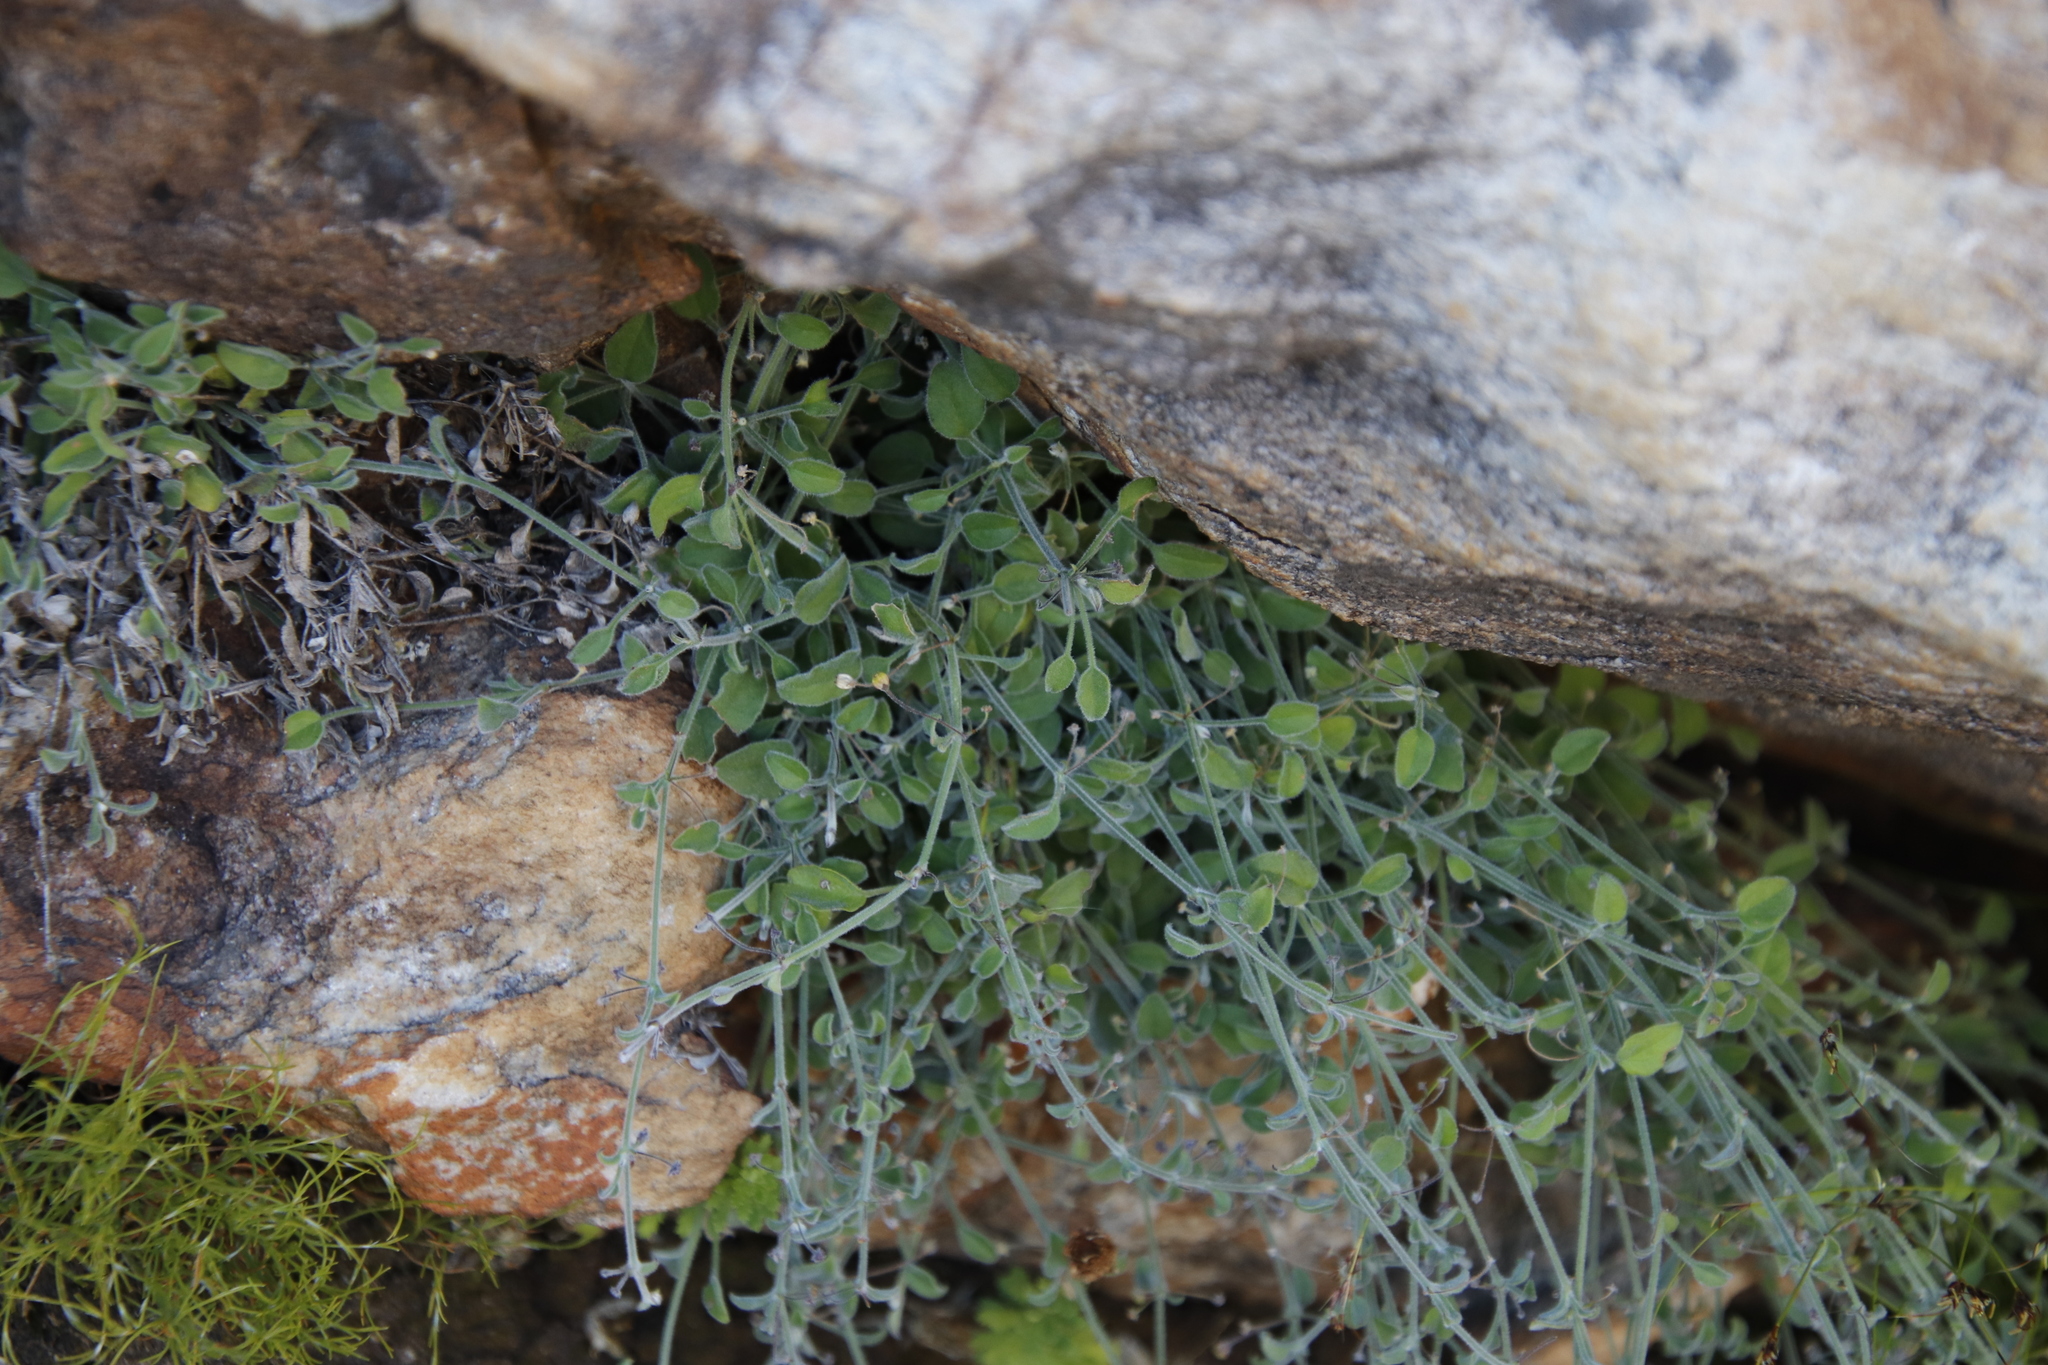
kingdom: Plantae
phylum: Tracheophyta
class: Magnoliopsida
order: Apiales
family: Apiaceae
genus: Centella
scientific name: Centella villosa
